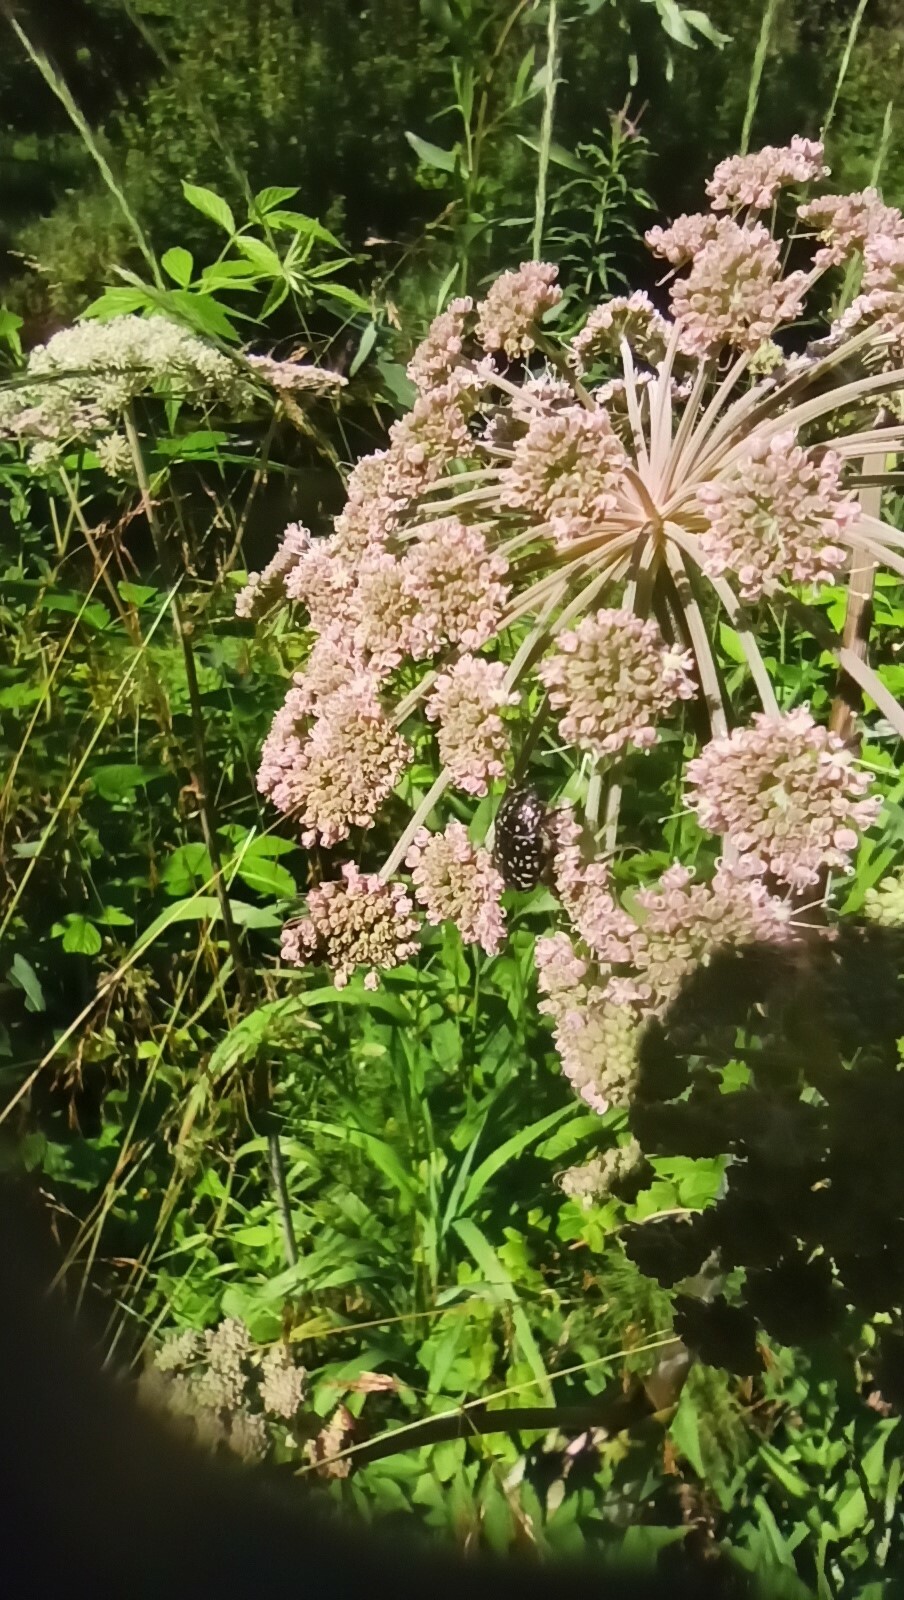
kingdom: Animalia
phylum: Arthropoda
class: Insecta
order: Coleoptera
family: Scarabaeidae
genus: Oxythyrea
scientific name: Oxythyrea funesta
